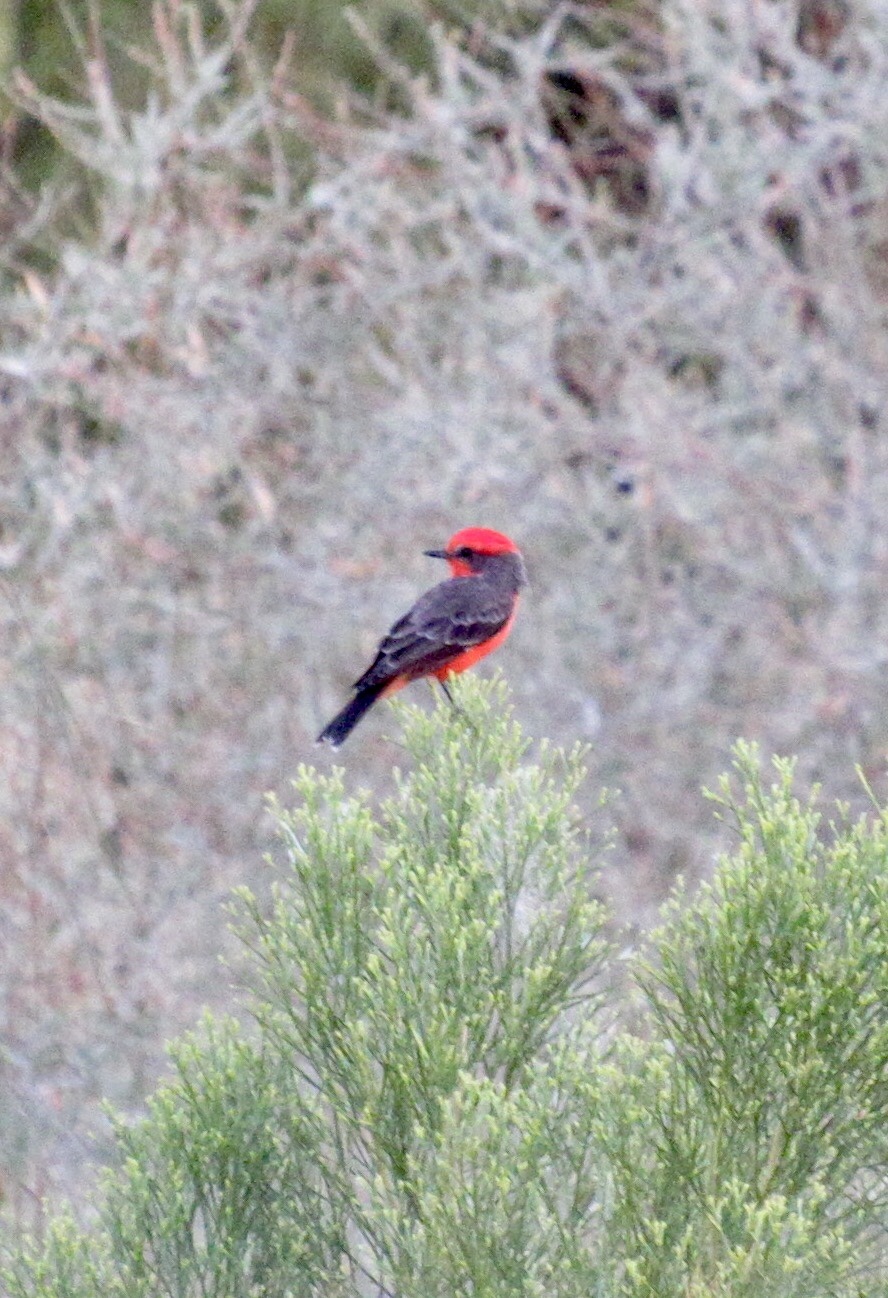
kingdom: Animalia
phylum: Chordata
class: Aves
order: Passeriformes
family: Tyrannidae
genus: Pyrocephalus
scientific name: Pyrocephalus rubinus
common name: Vermilion flycatcher
